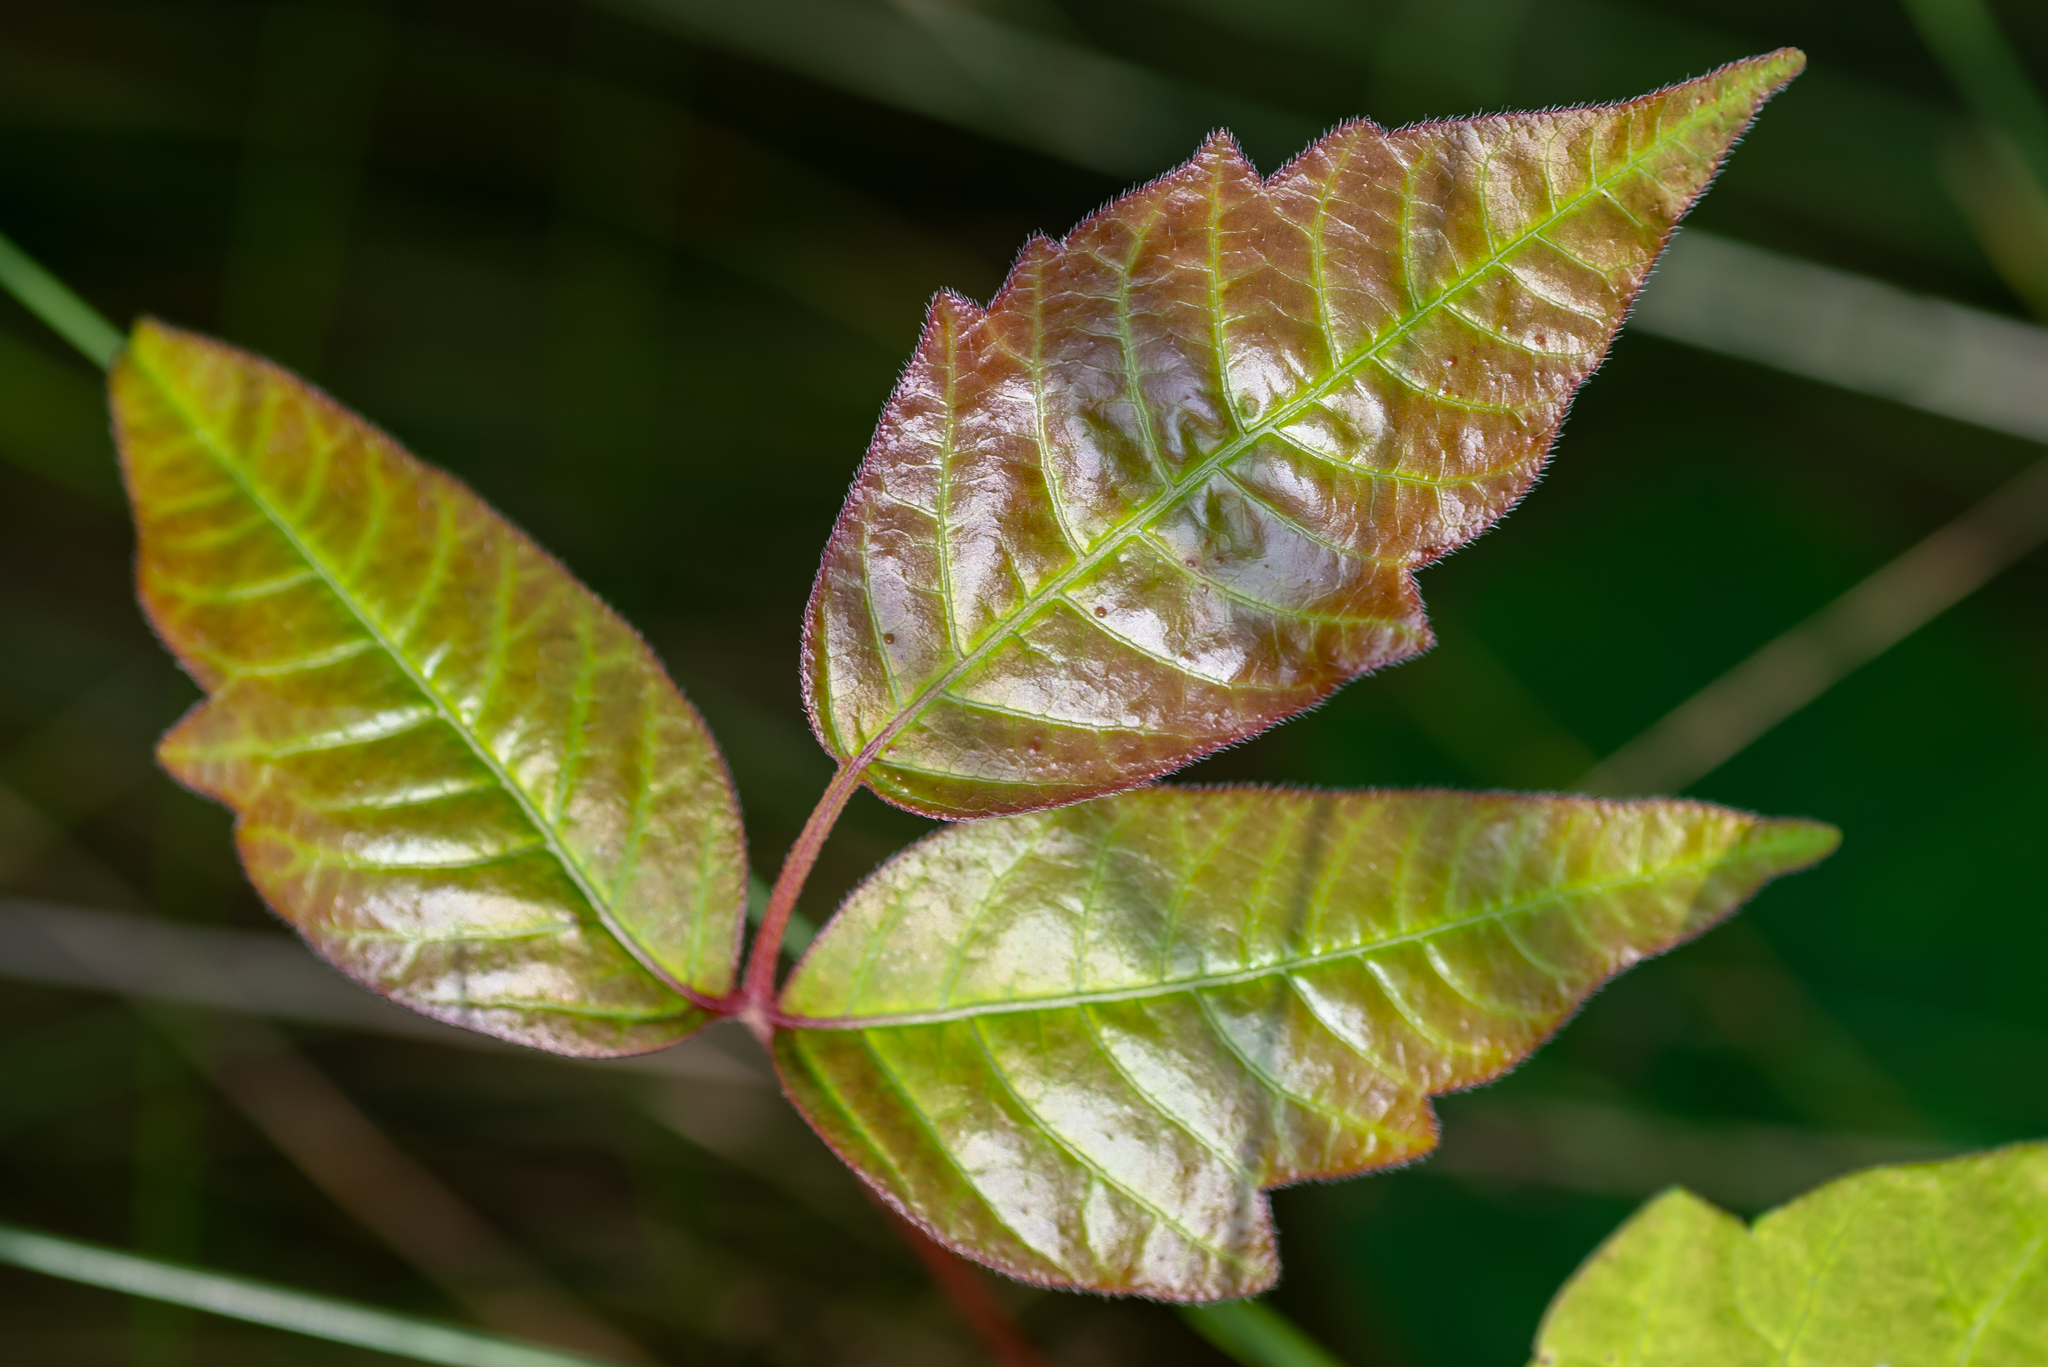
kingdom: Plantae
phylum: Tracheophyta
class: Magnoliopsida
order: Sapindales
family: Anacardiaceae
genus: Toxicodendron
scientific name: Toxicodendron radicans
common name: Poison ivy
